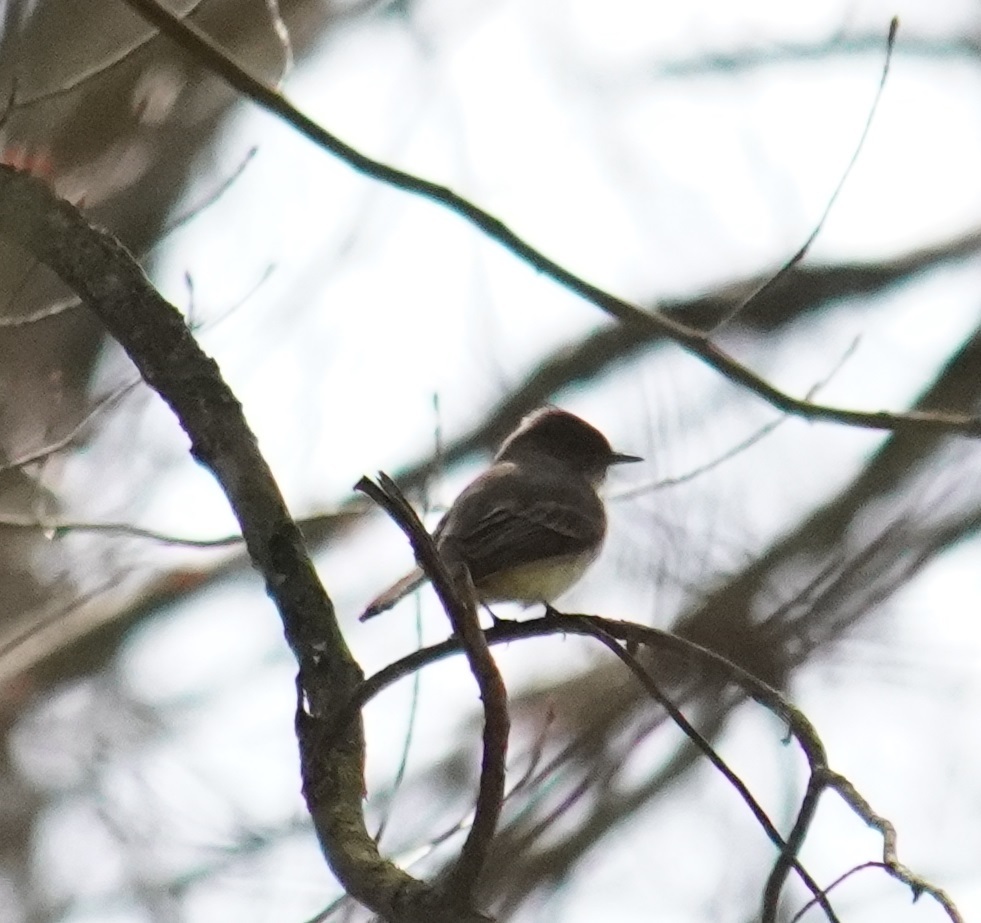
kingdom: Animalia
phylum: Chordata
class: Aves
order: Passeriformes
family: Tyrannidae
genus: Sayornis
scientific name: Sayornis phoebe
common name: Eastern phoebe
